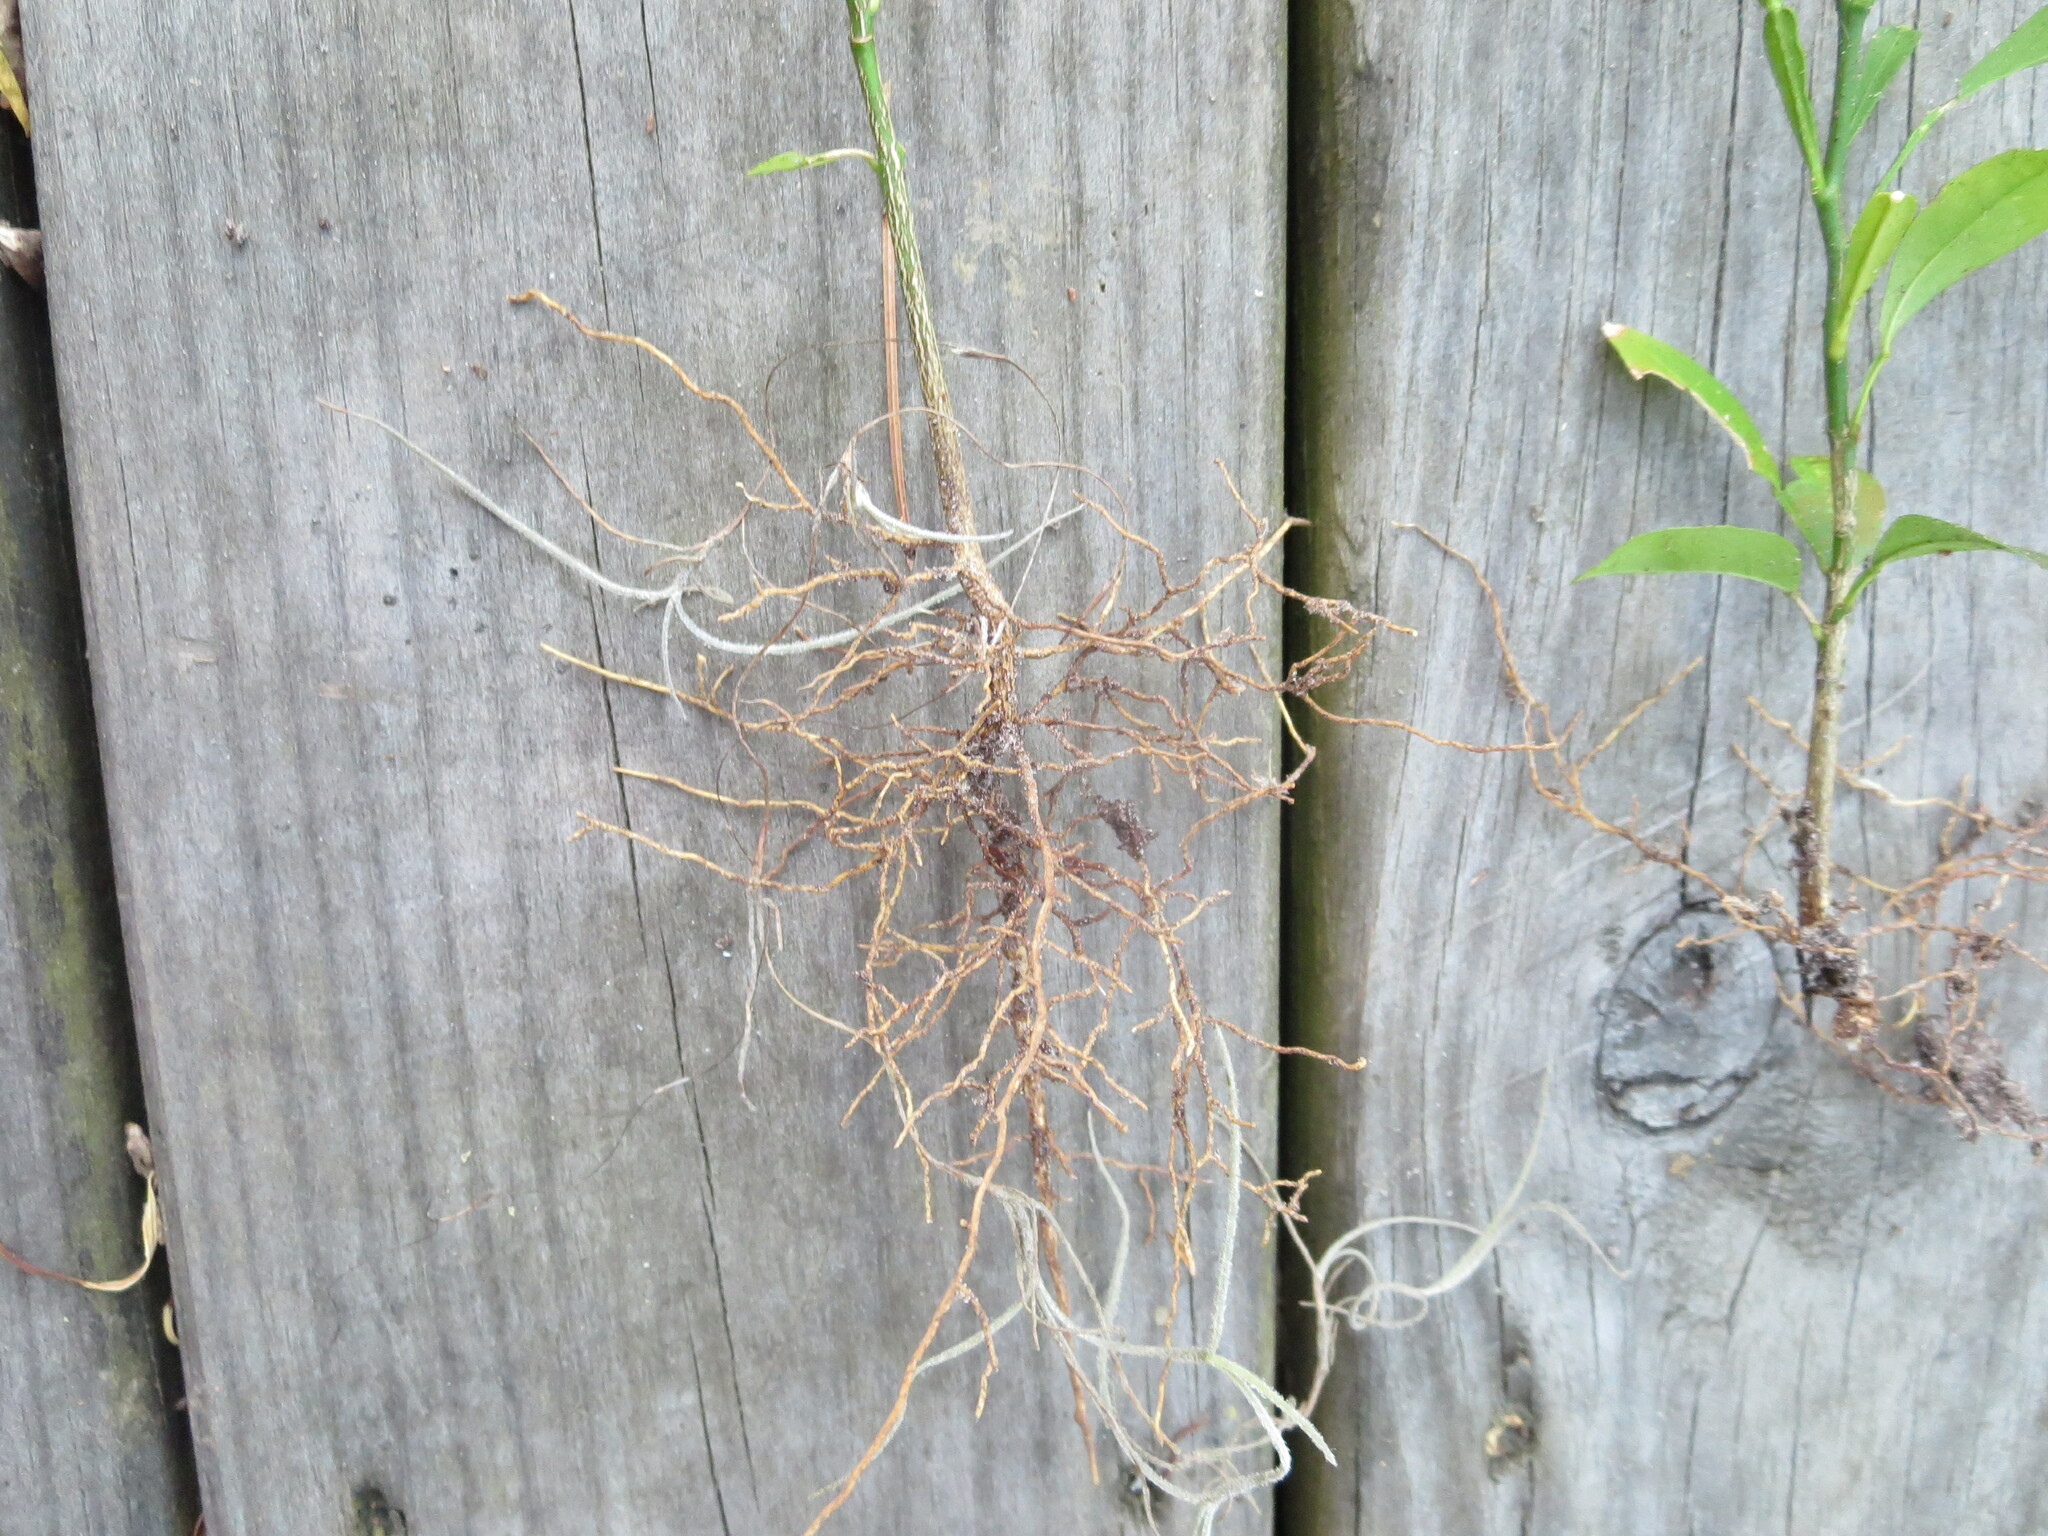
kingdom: Plantae
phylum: Tracheophyta
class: Magnoliopsida
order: Sapindales
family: Rutaceae
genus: Citrus
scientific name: Citrus aurantium
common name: Sour orange
